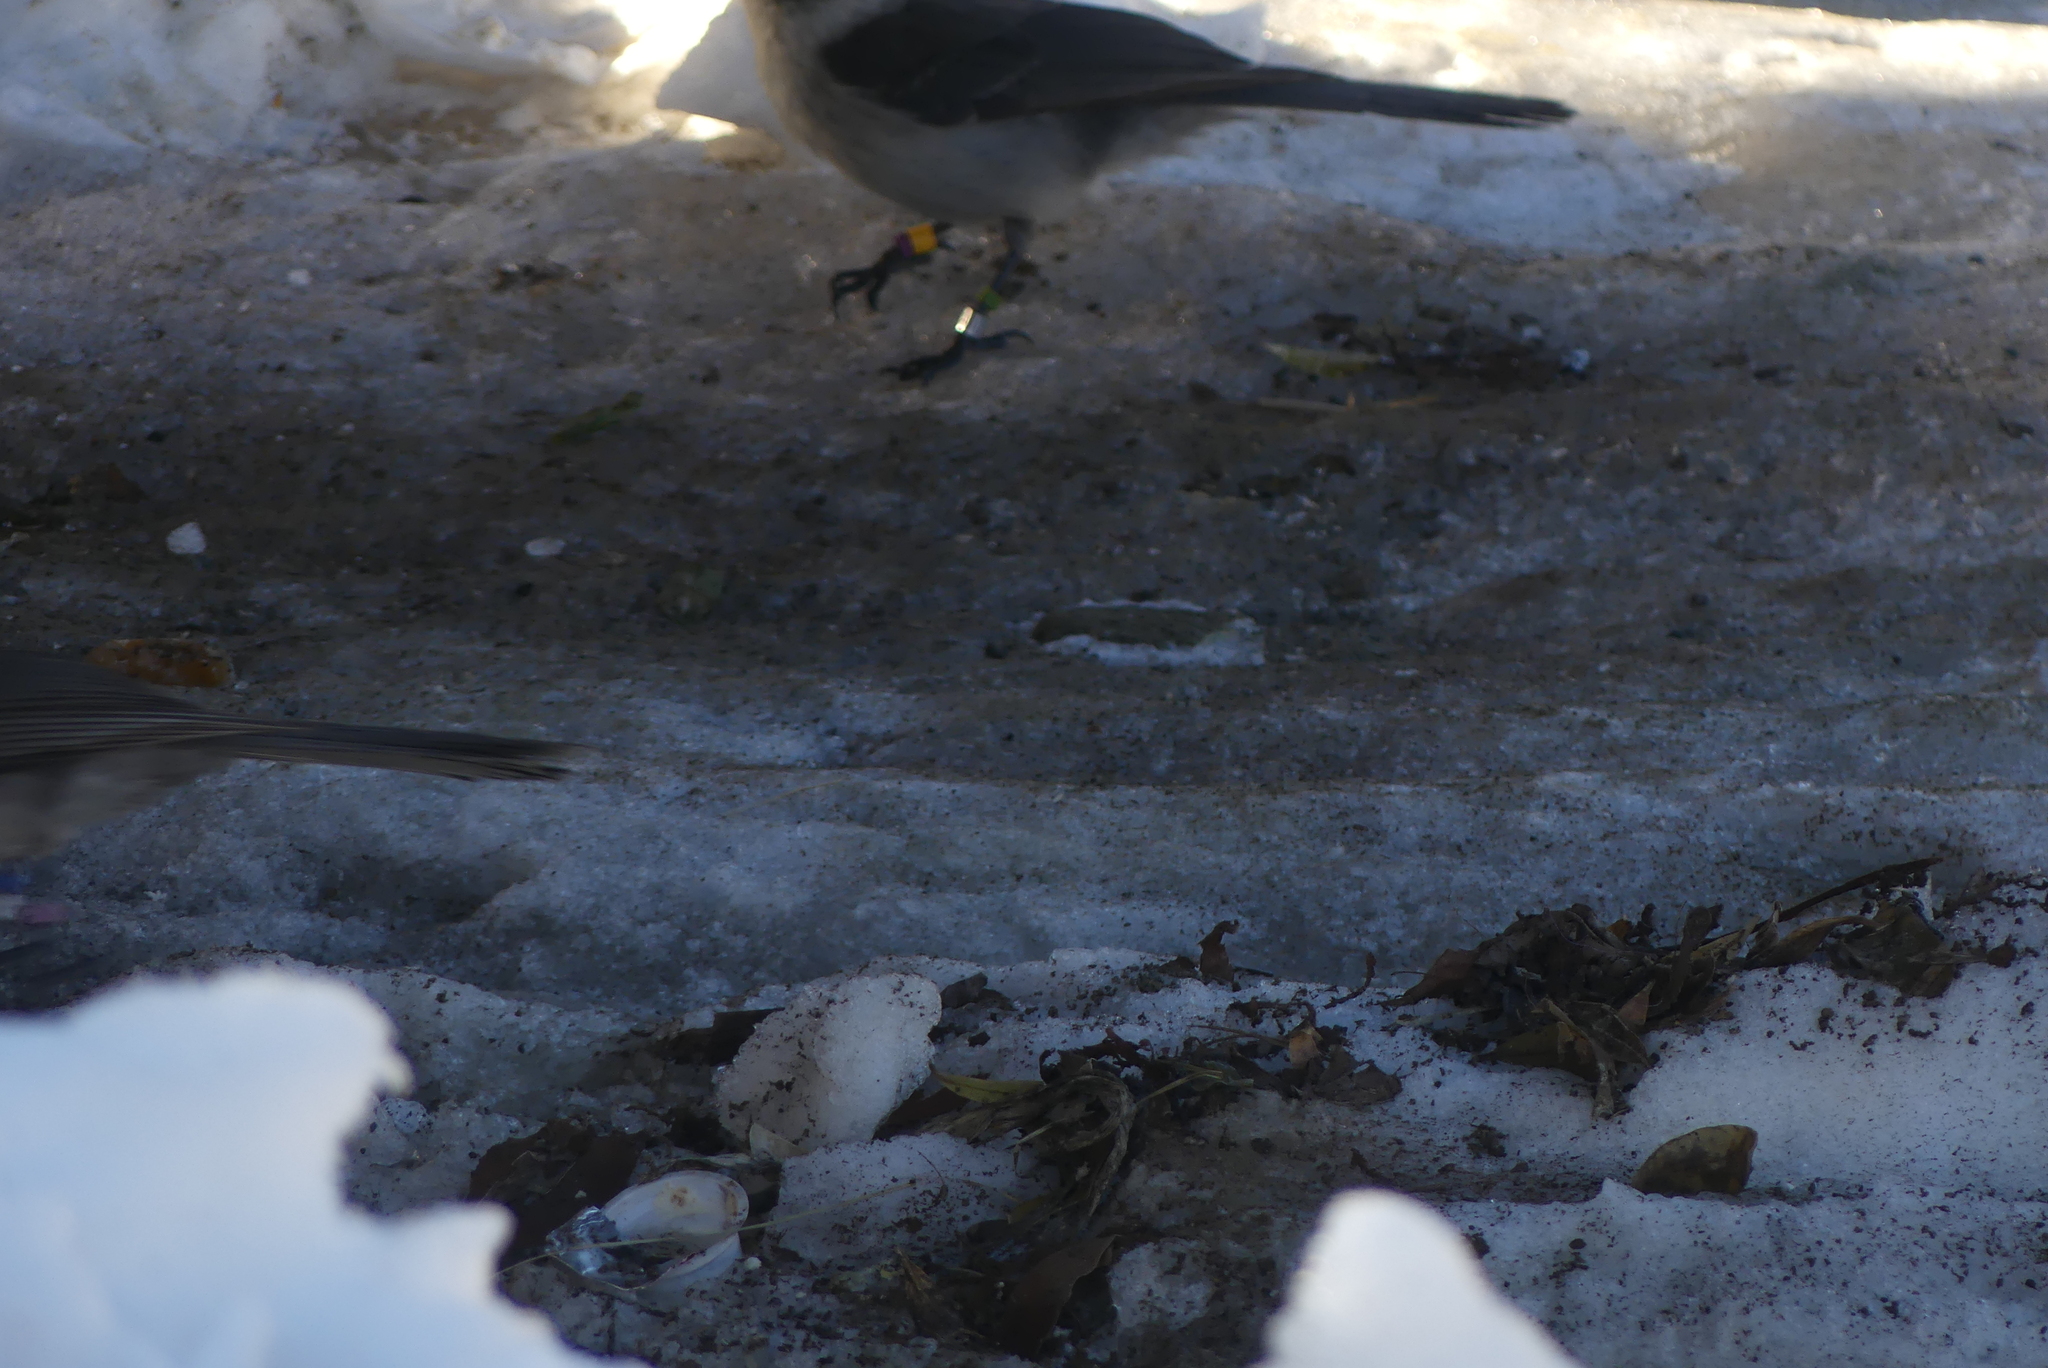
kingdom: Animalia
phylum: Chordata
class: Aves
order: Passeriformes
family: Corvidae
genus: Perisoreus
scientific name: Perisoreus canadensis
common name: Gray jay
